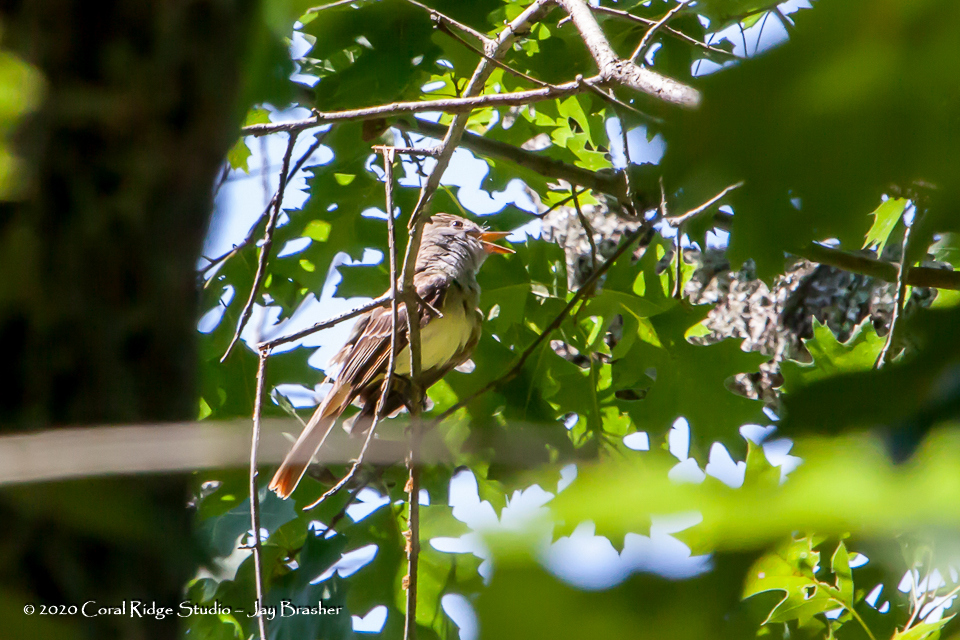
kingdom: Animalia
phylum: Chordata
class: Aves
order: Passeriformes
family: Tyrannidae
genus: Myiarchus
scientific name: Myiarchus crinitus
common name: Great crested flycatcher
